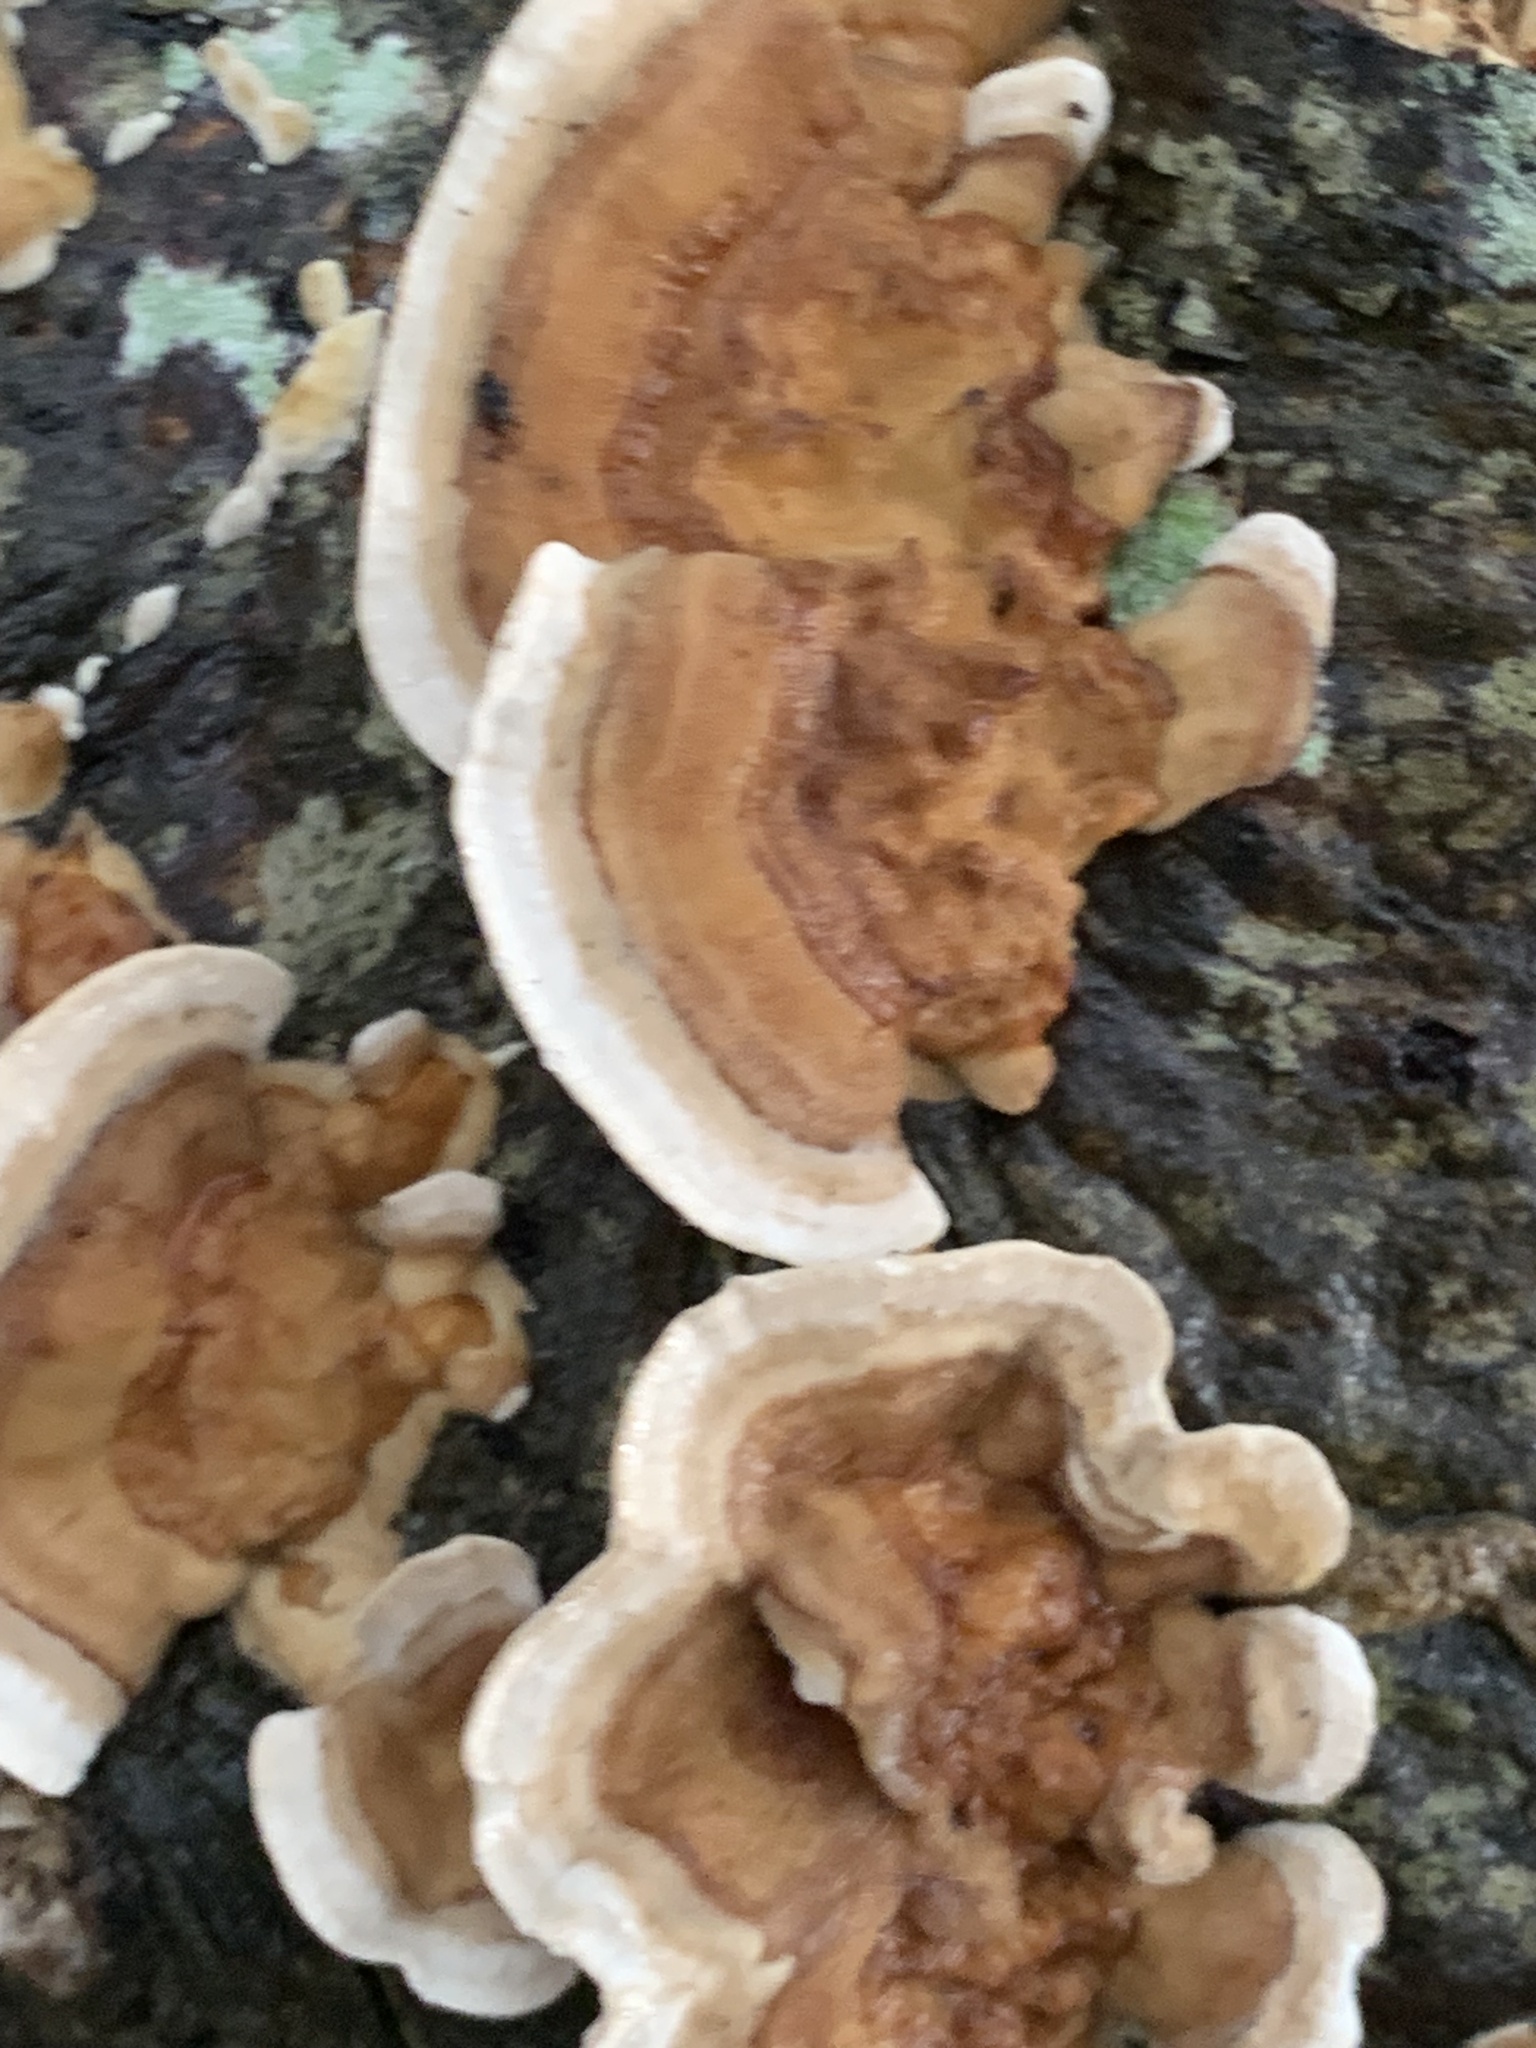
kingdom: Fungi
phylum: Basidiomycota
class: Agaricomycetes
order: Polyporales
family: Polyporaceae
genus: Trametes
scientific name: Trametes versicolor
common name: Turkeytail
